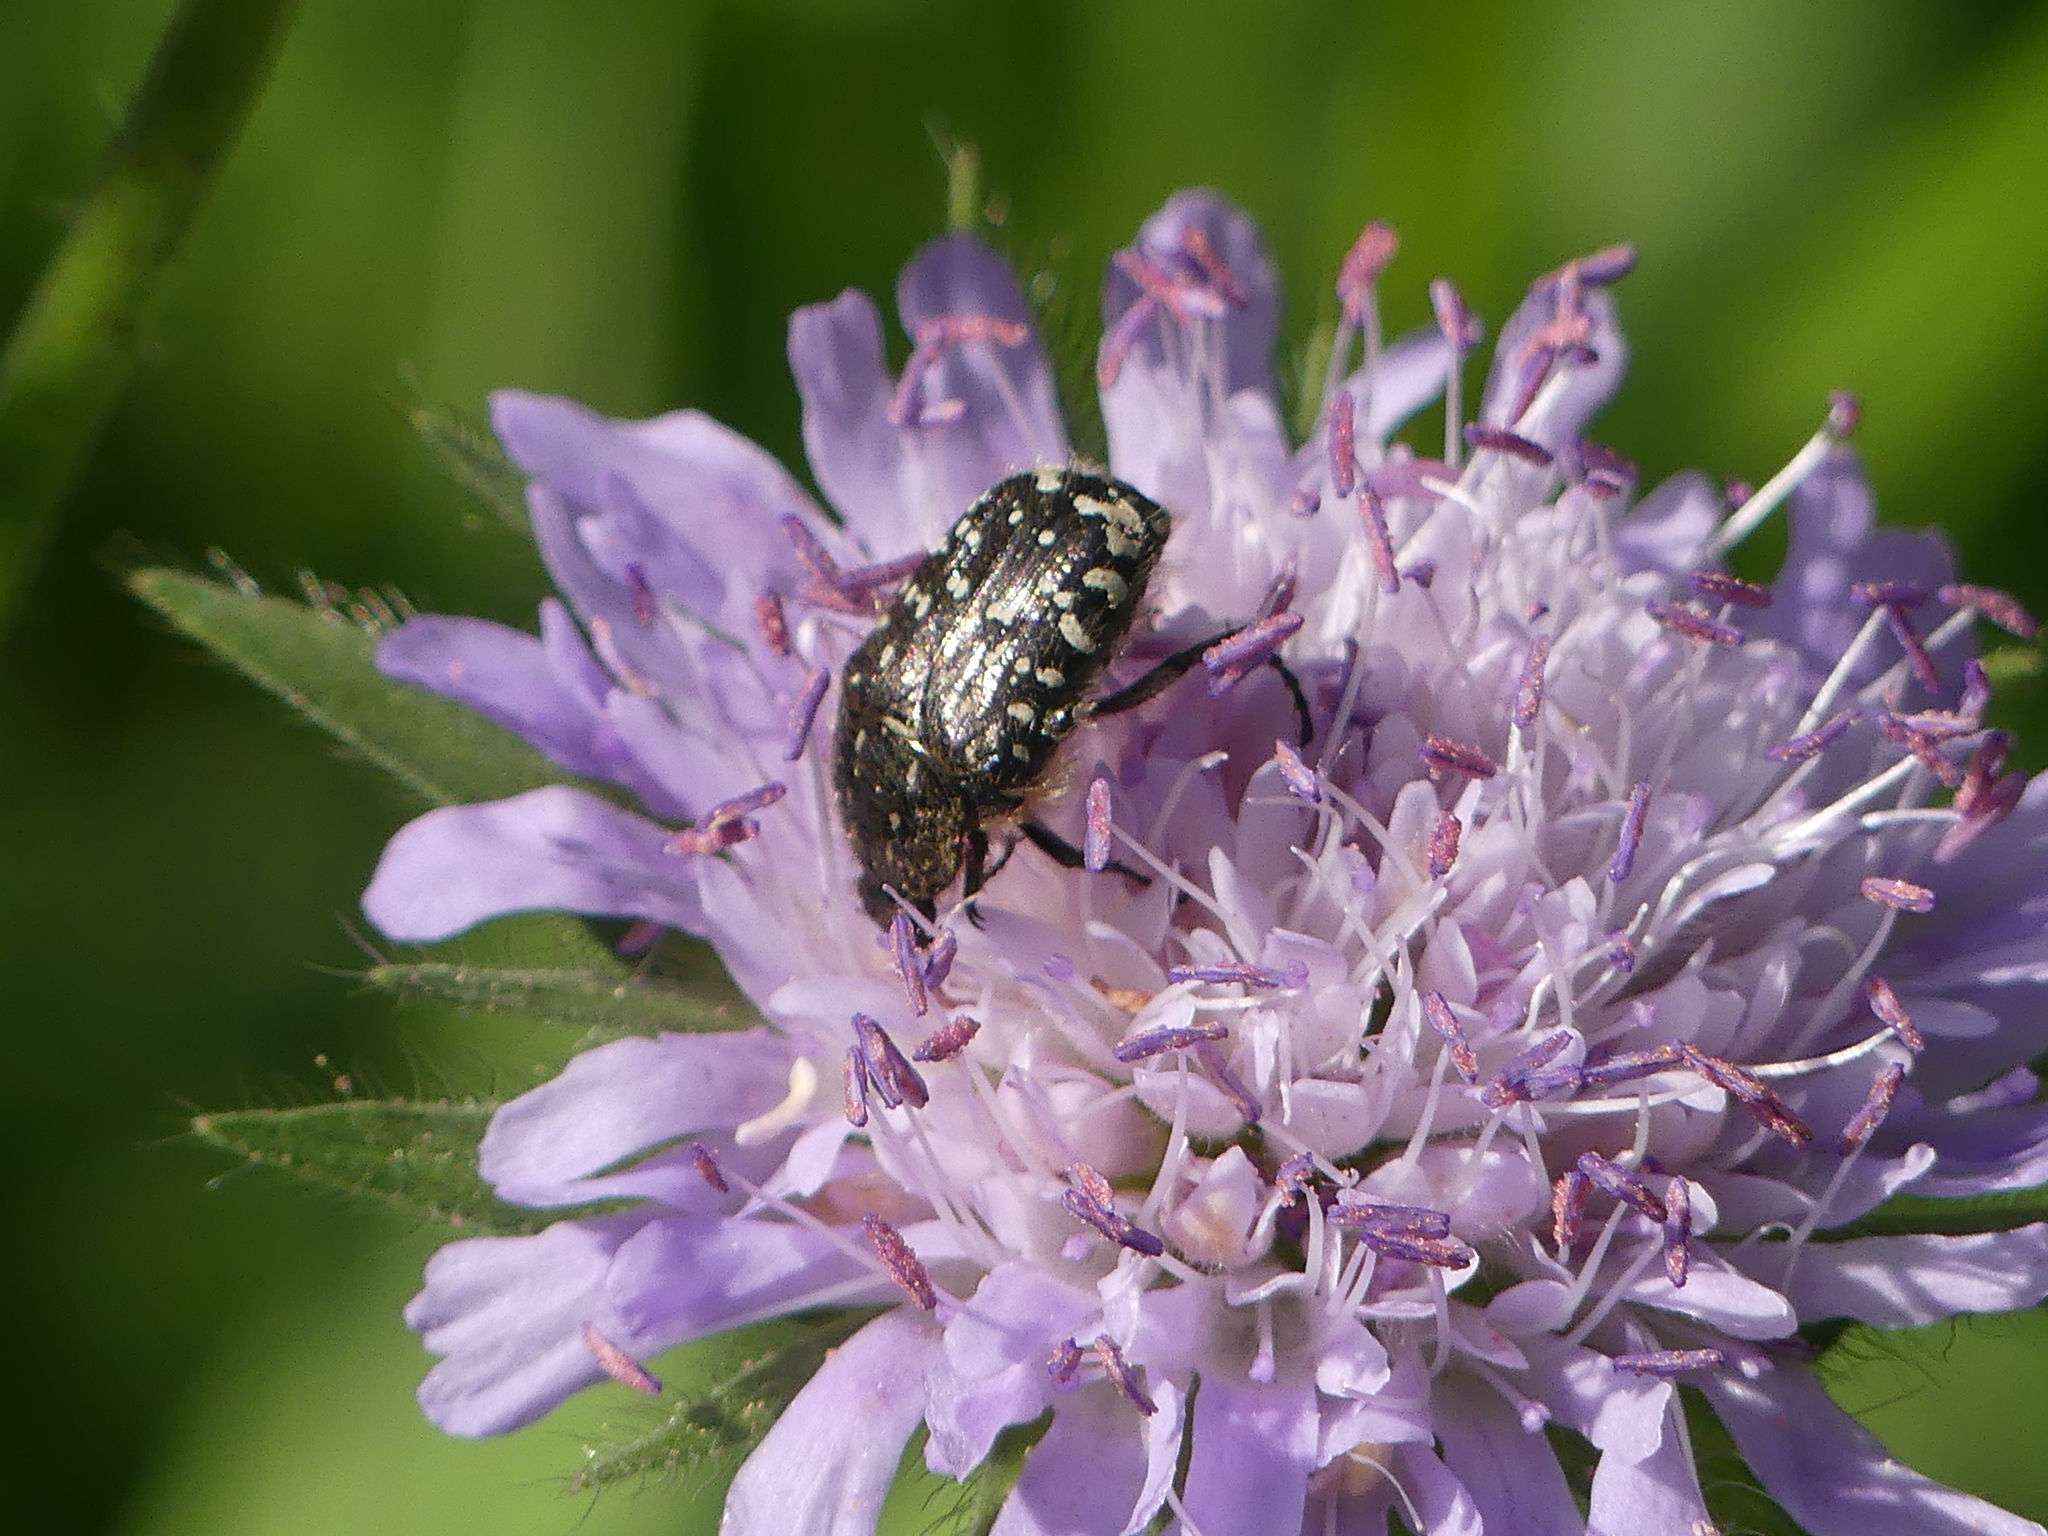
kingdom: Animalia
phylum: Arthropoda
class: Insecta
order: Coleoptera
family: Scarabaeidae
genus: Oxythyrea
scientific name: Oxythyrea funesta
